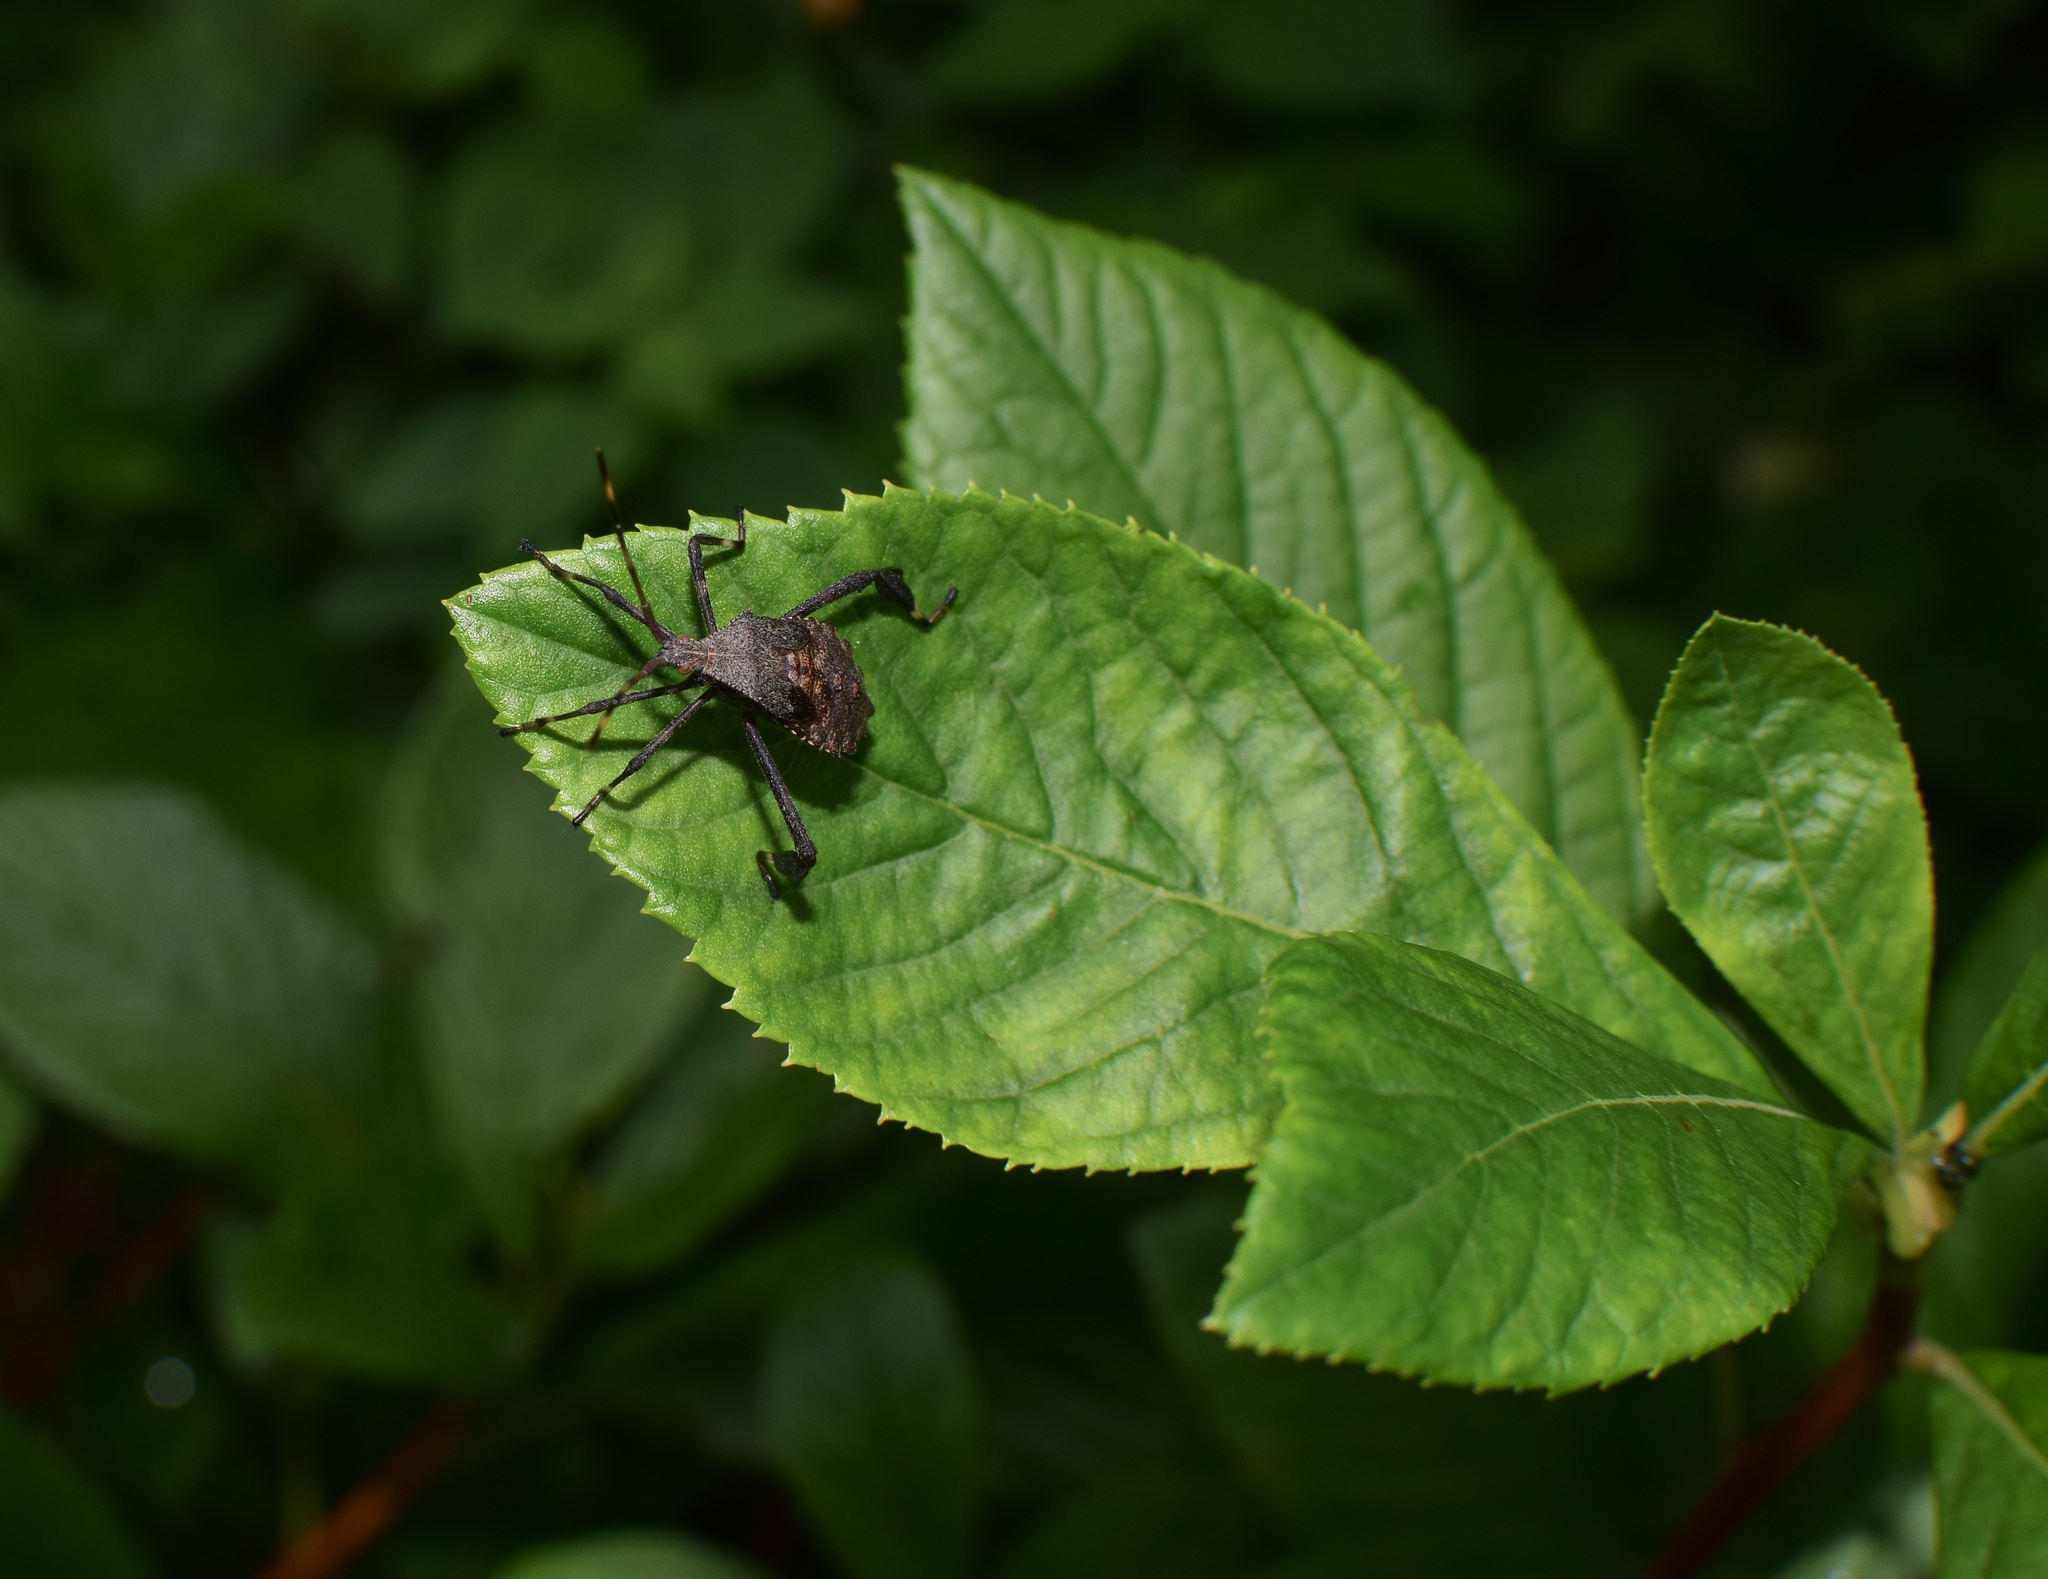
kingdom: Animalia
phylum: Arthropoda
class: Insecta
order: Hemiptera
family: Coreidae
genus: Acanthocephala
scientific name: Acanthocephala terminalis
